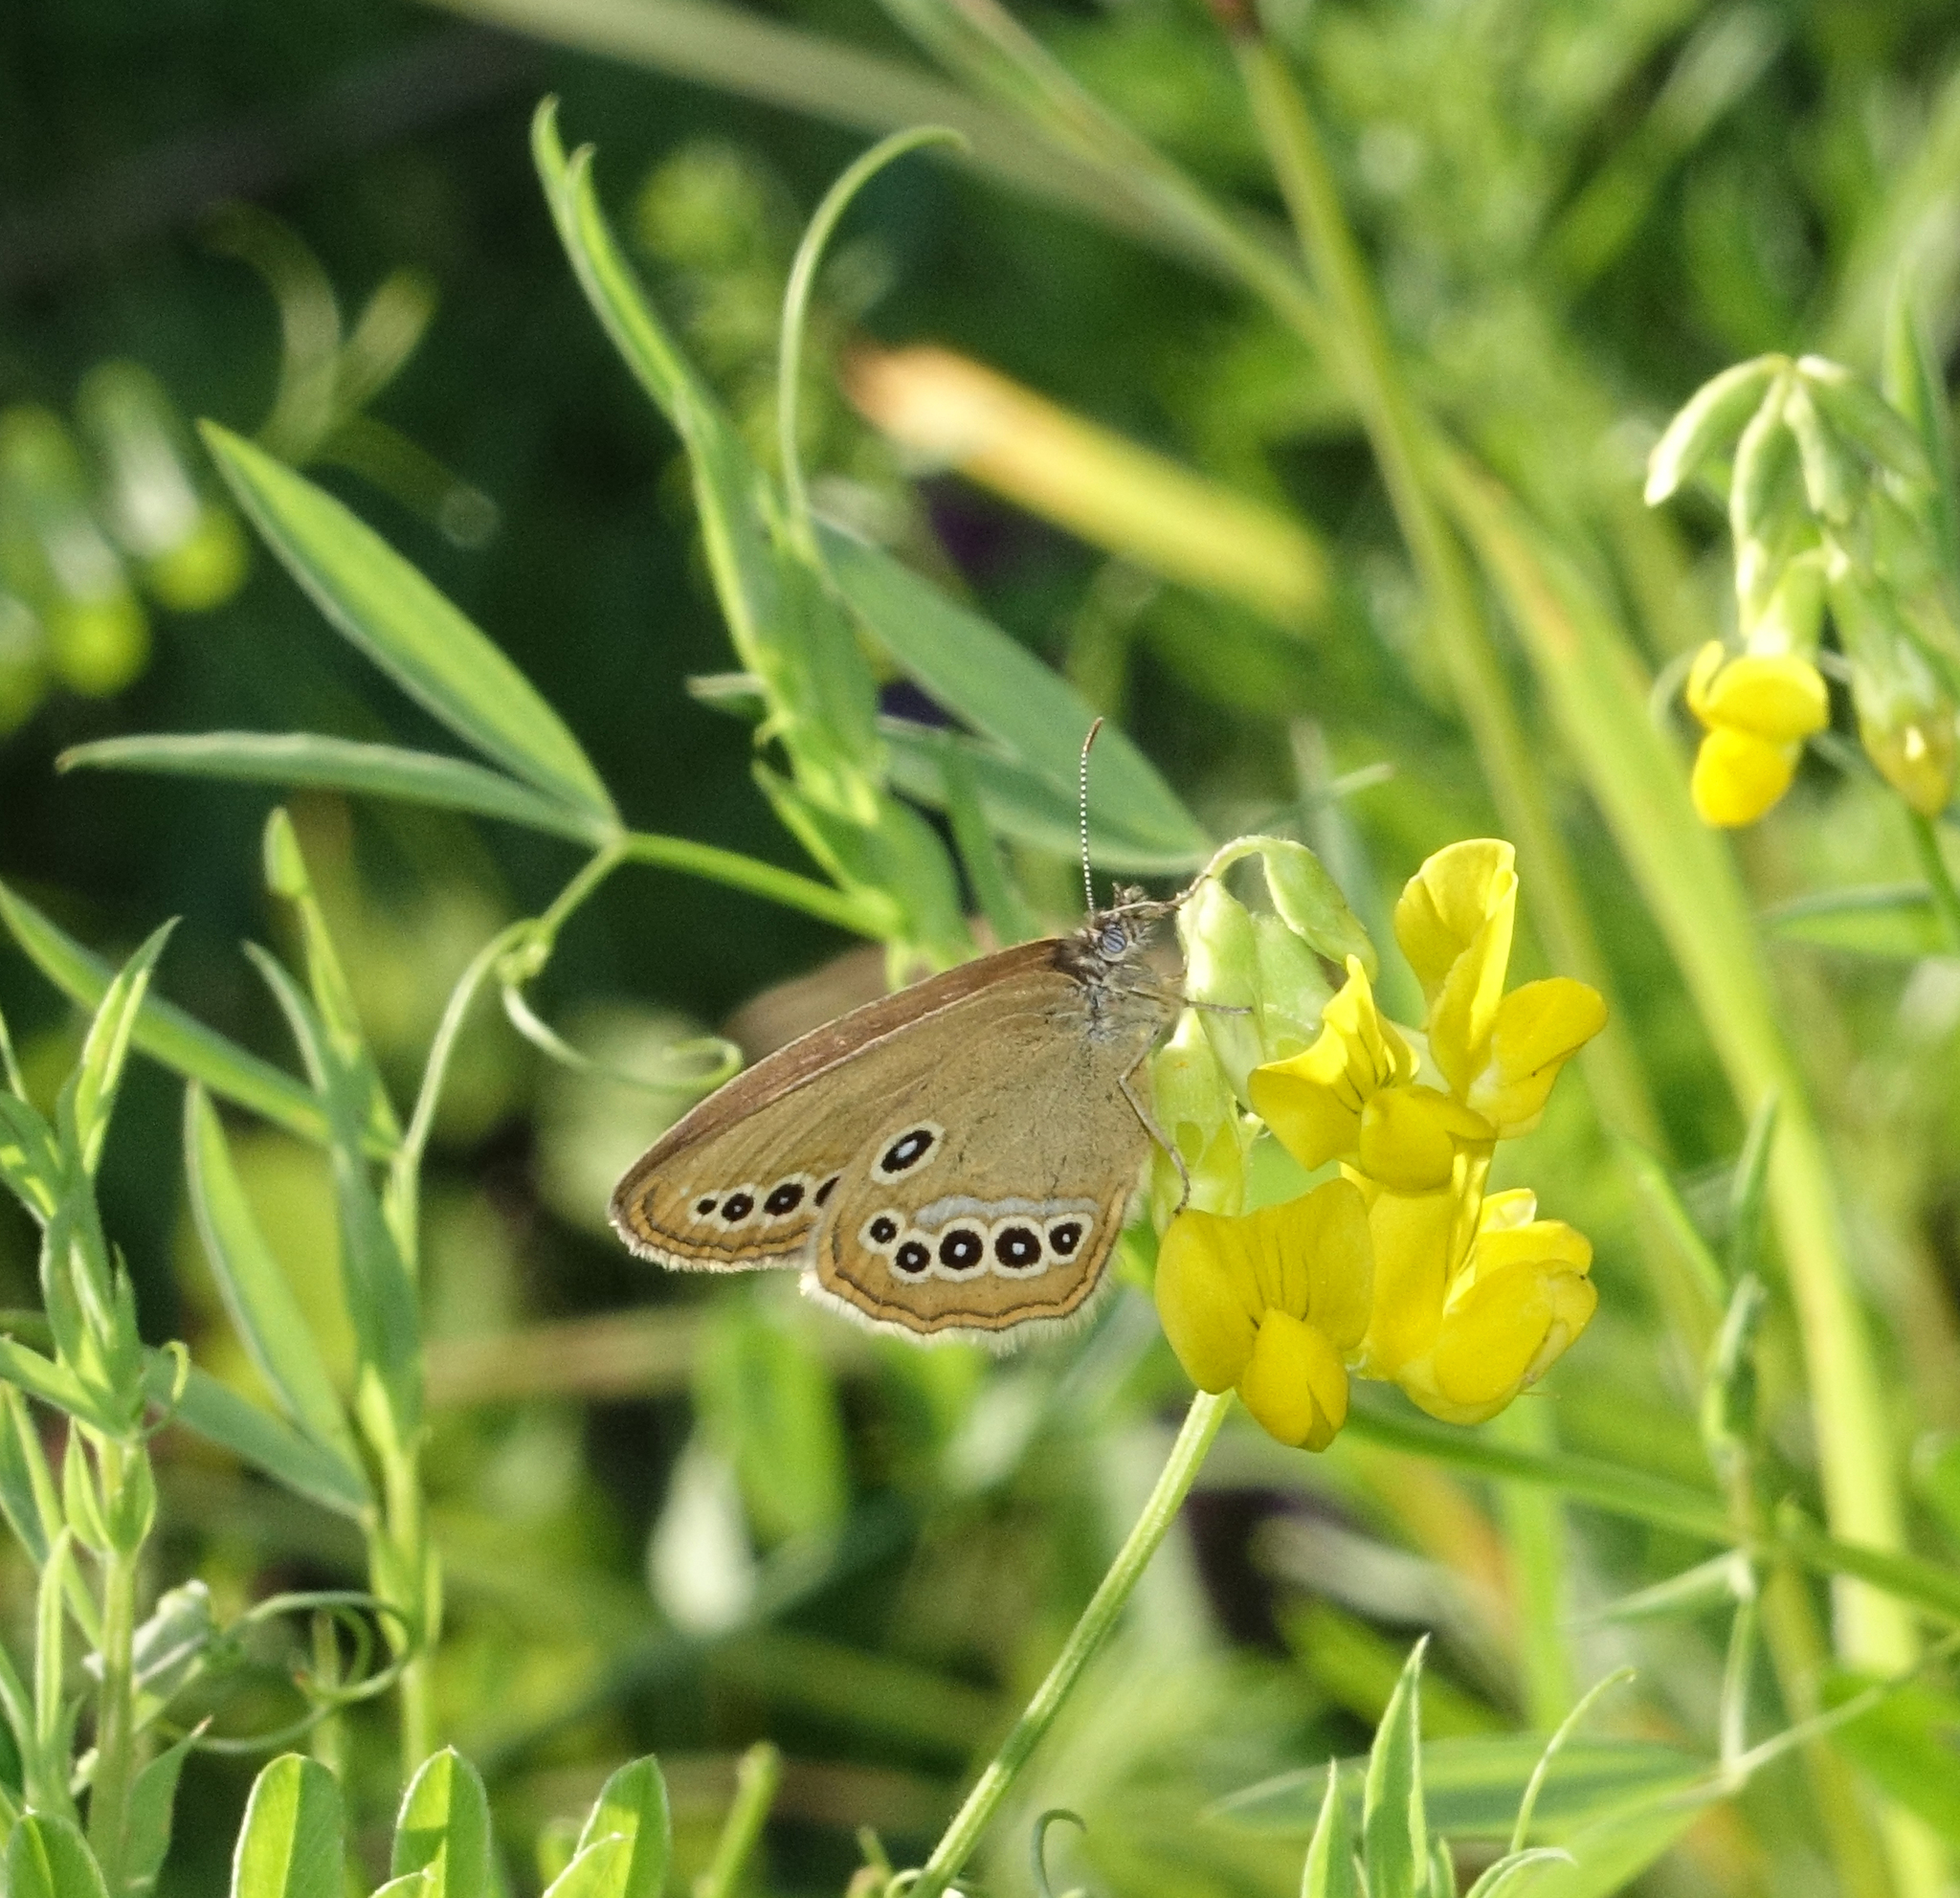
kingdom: Animalia
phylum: Arthropoda
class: Insecta
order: Lepidoptera
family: Nymphalidae
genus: Coenonympha
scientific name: Coenonympha oedippus
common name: False ringlet
